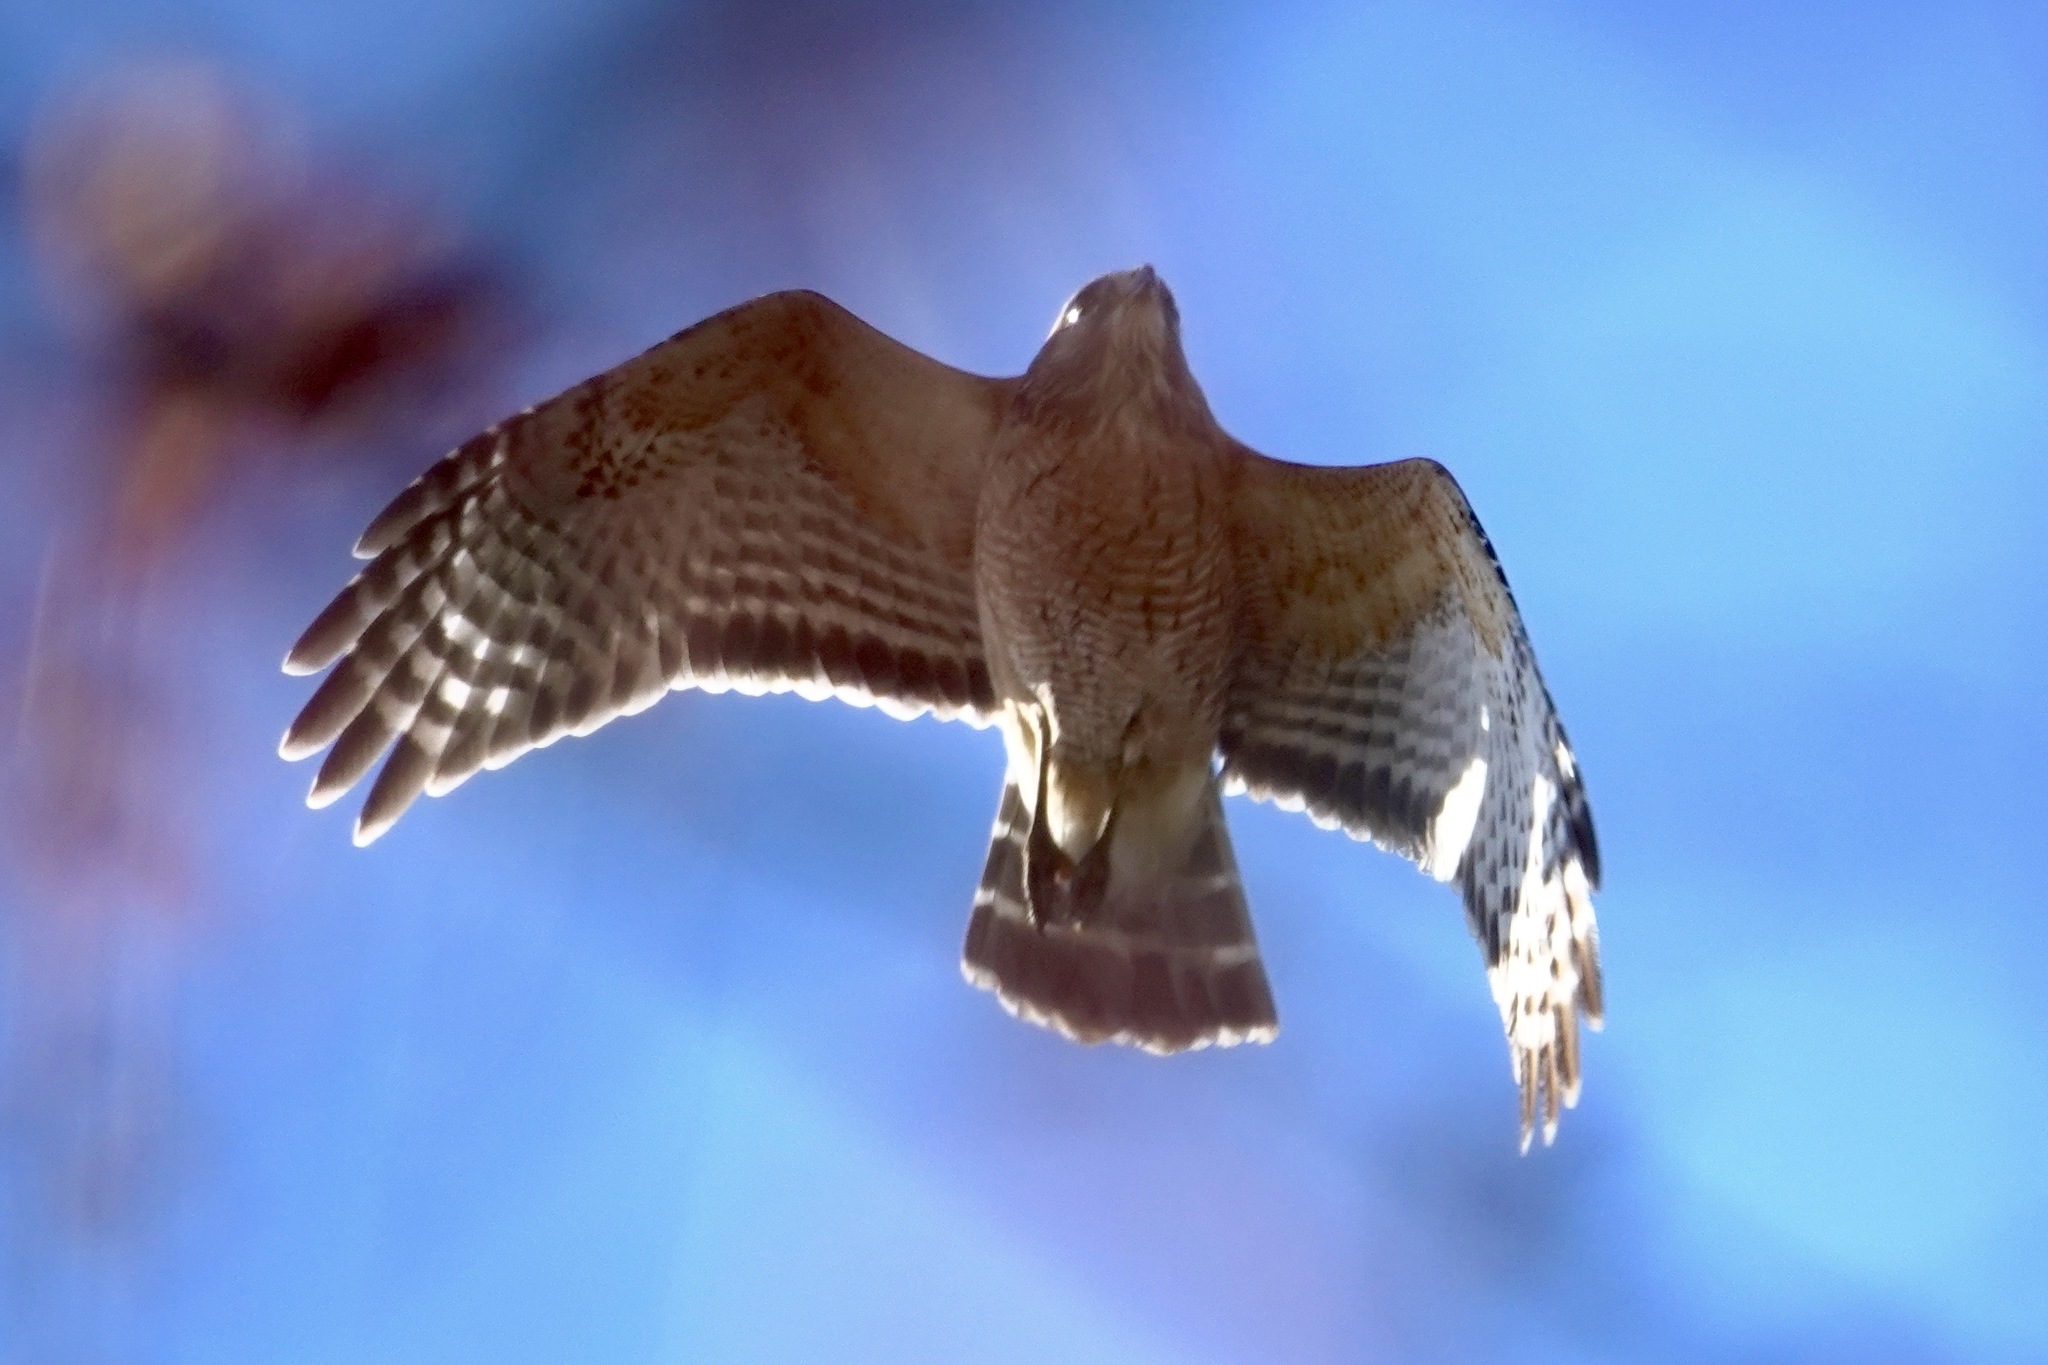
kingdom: Animalia
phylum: Chordata
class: Aves
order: Accipitriformes
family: Accipitridae
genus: Buteo
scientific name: Buteo lineatus
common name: Red-shouldered hawk
